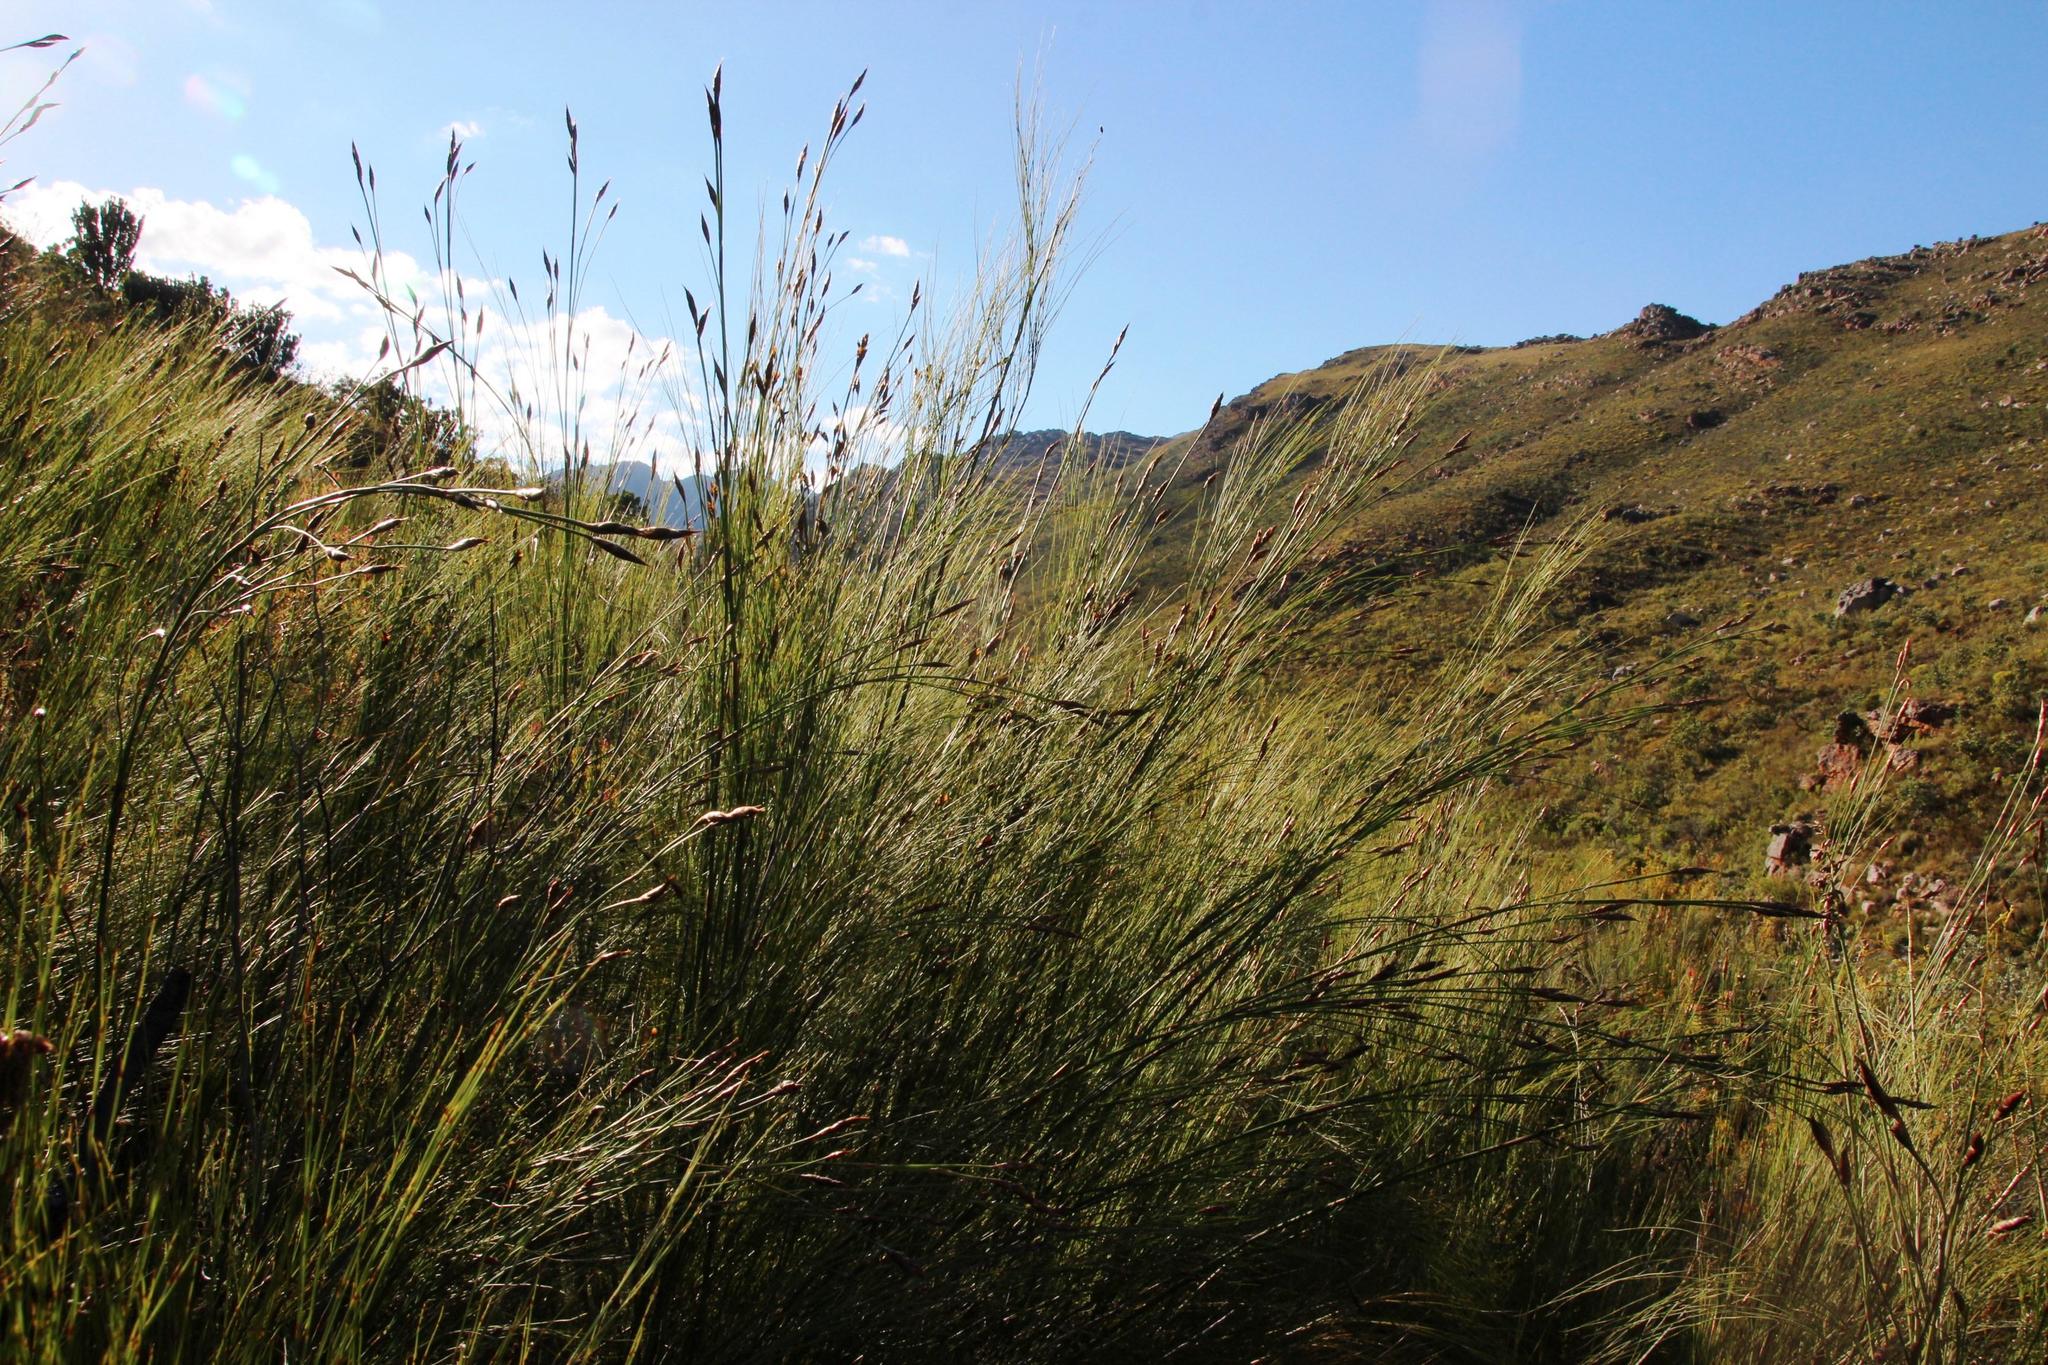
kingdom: Plantae
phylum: Tracheophyta
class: Liliopsida
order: Poales
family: Restionaceae
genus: Cannomois
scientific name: Cannomois robusta
